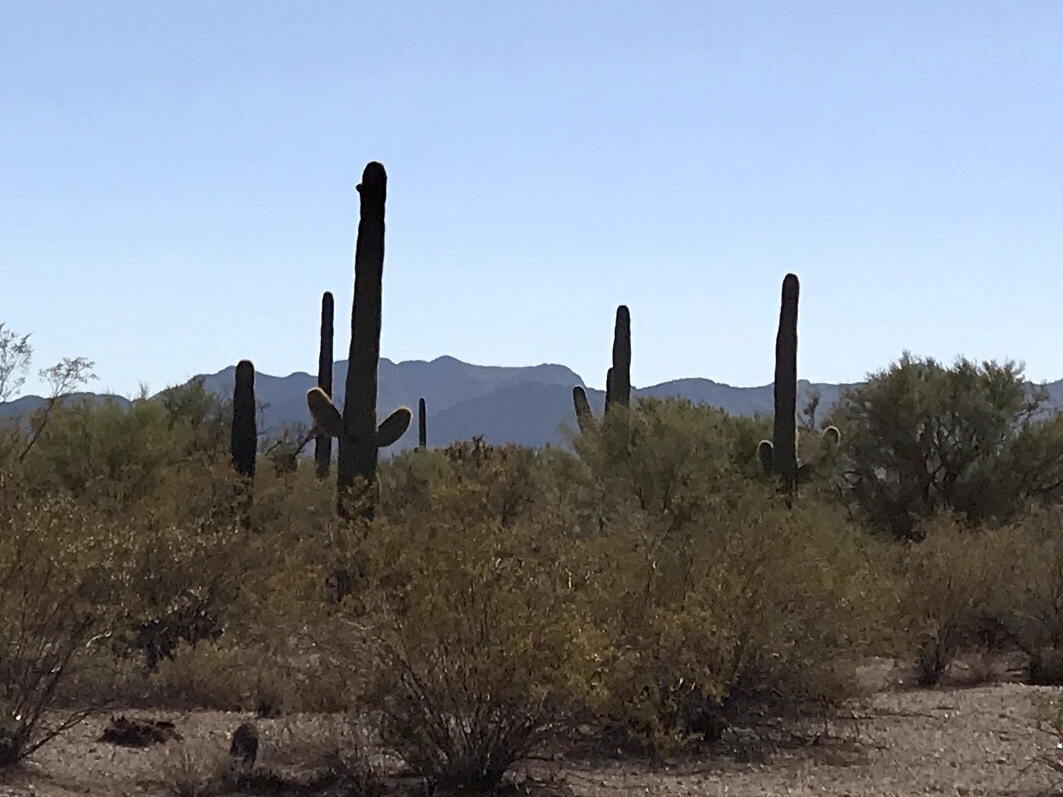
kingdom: Plantae
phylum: Tracheophyta
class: Magnoliopsida
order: Caryophyllales
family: Cactaceae
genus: Carnegiea
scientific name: Carnegiea gigantea
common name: Saguaro
